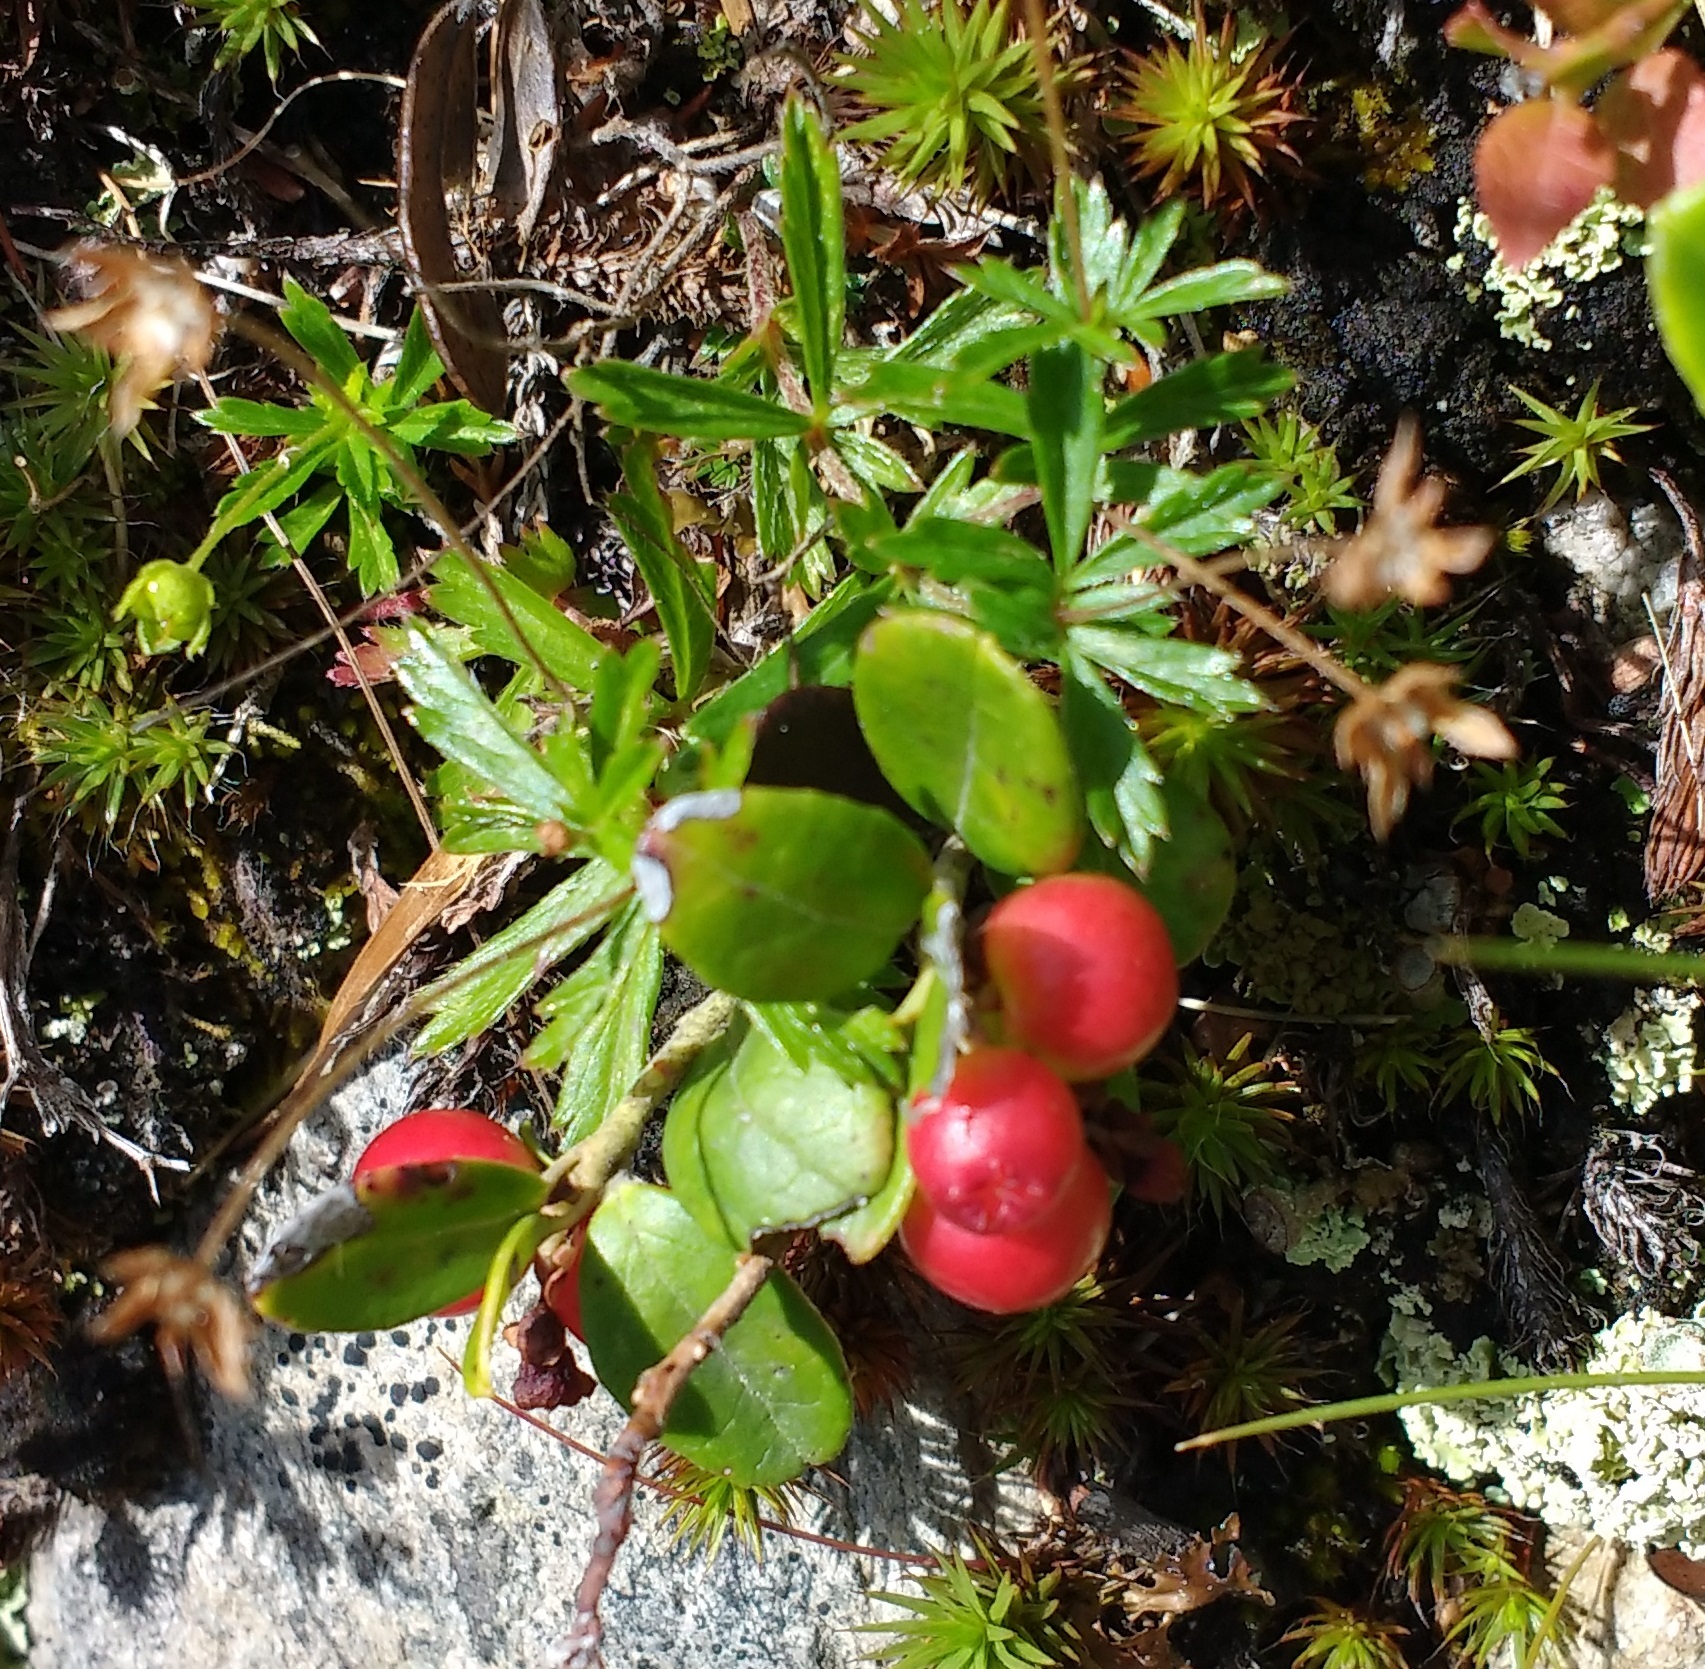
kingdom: Plantae
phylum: Tracheophyta
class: Magnoliopsida
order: Ericales
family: Ericaceae
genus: Vaccinium
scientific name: Vaccinium vitis-idaea
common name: Cowberry
